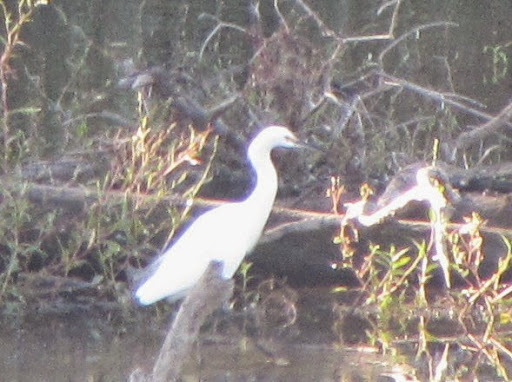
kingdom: Animalia
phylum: Chordata
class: Aves
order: Pelecaniformes
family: Ardeidae
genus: Egretta
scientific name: Egretta thula
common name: Snowy egret
